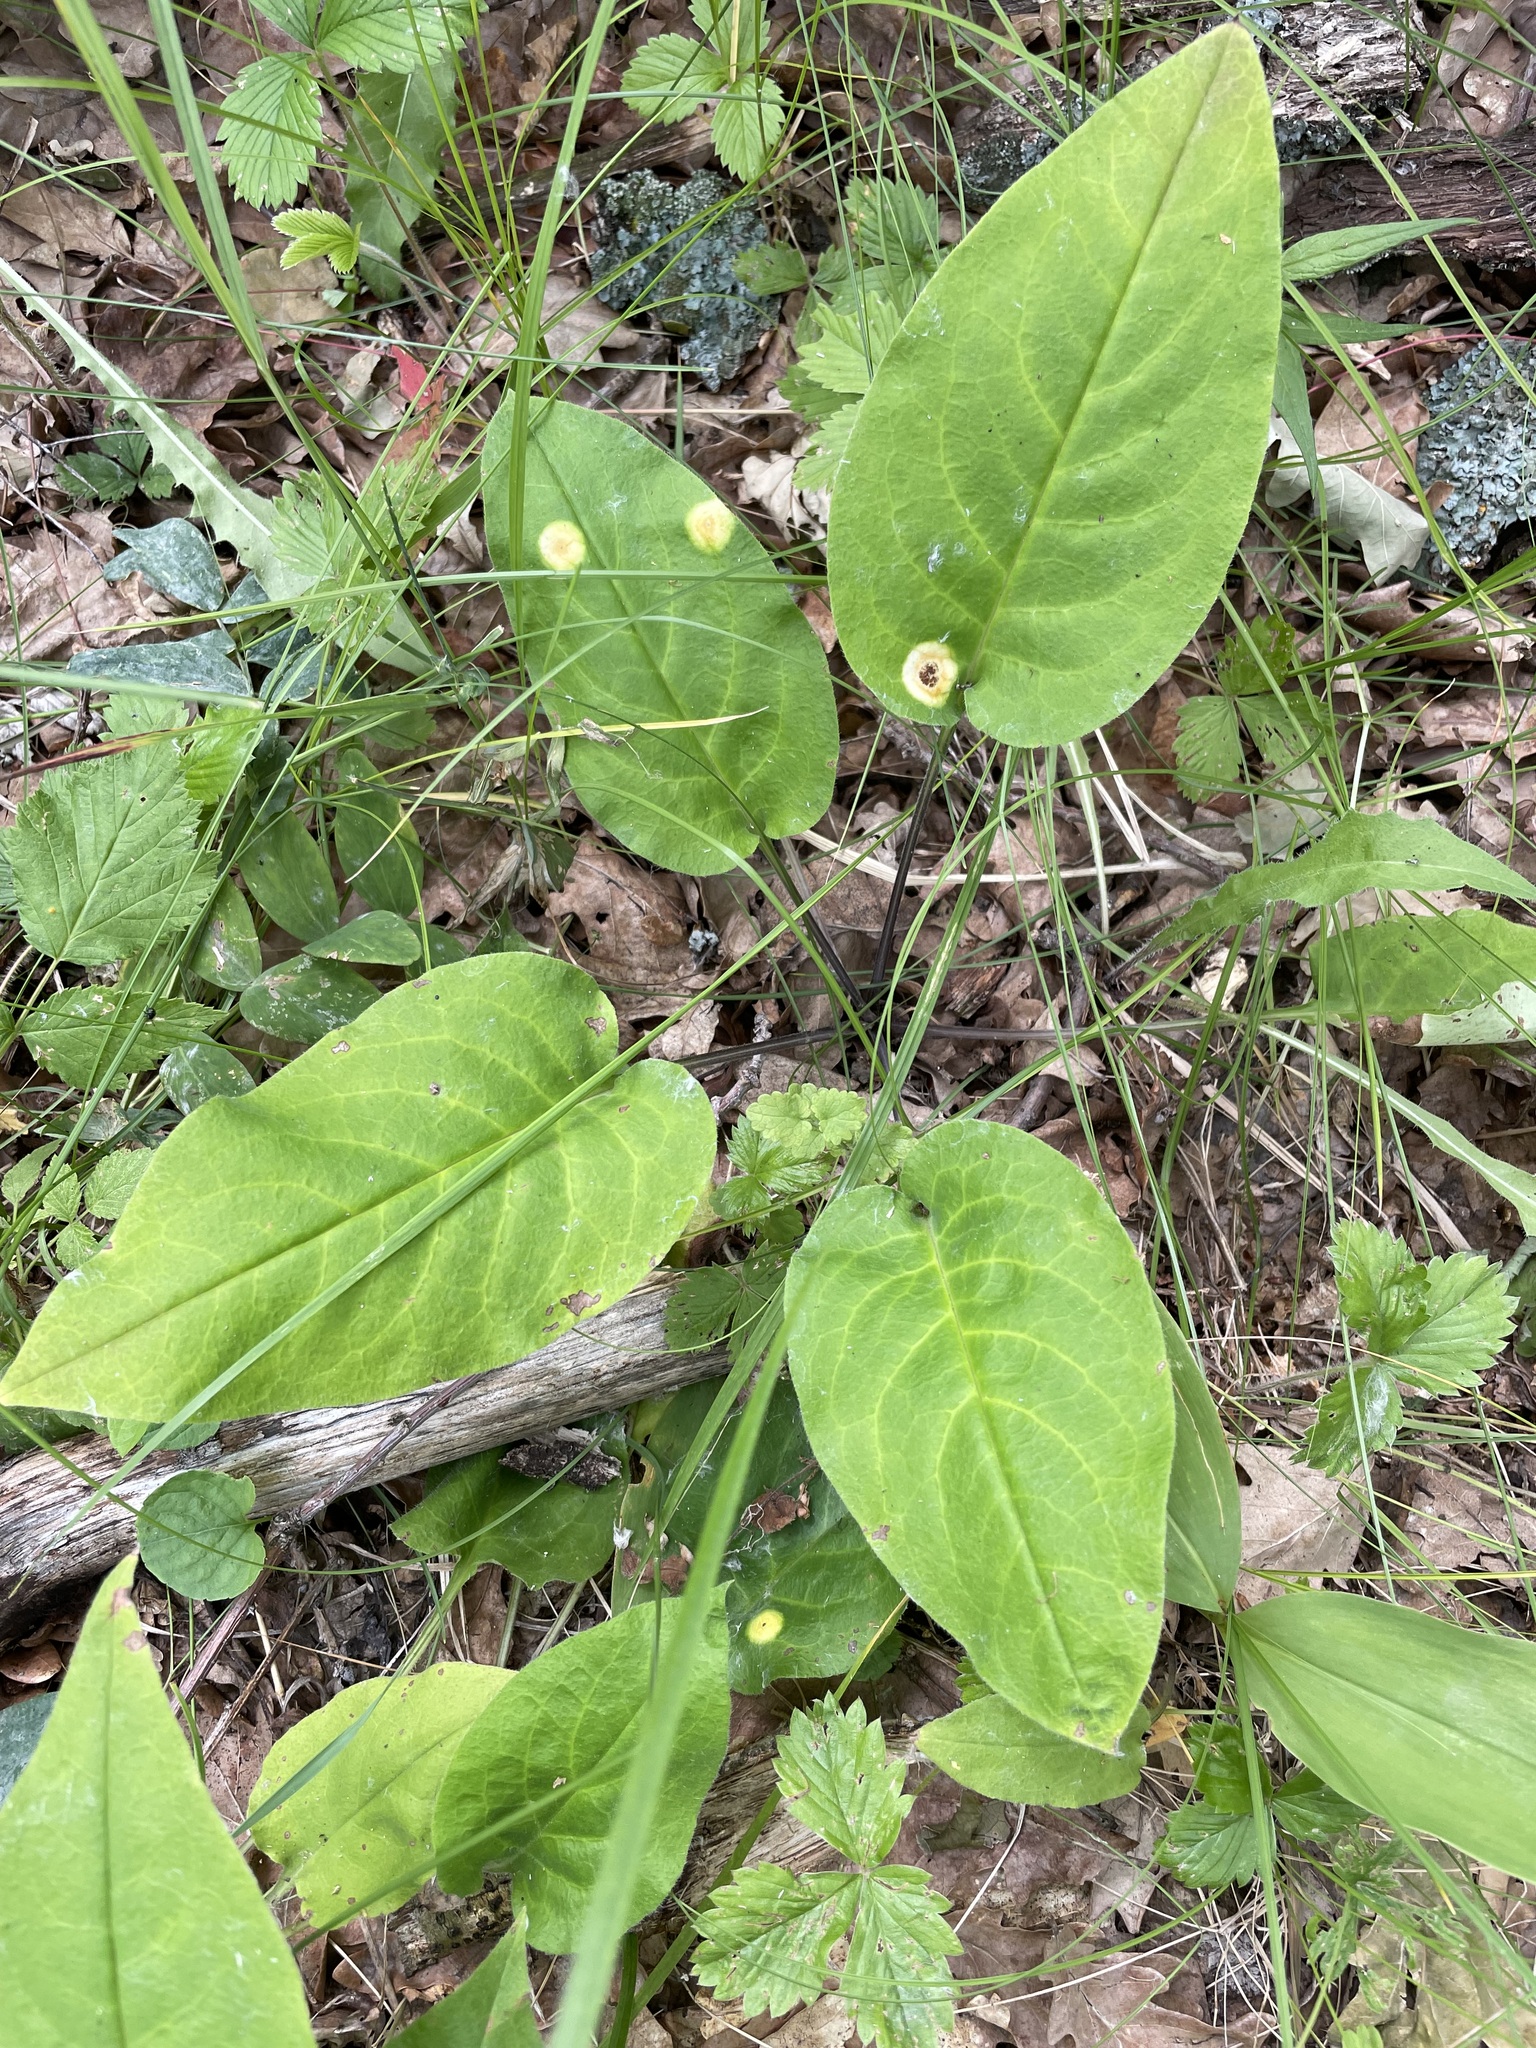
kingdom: Plantae
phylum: Tracheophyta
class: Magnoliopsida
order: Boraginales
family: Boraginaceae
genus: Pulmonaria
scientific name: Pulmonaria obscura
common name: Suffolk lungwort
